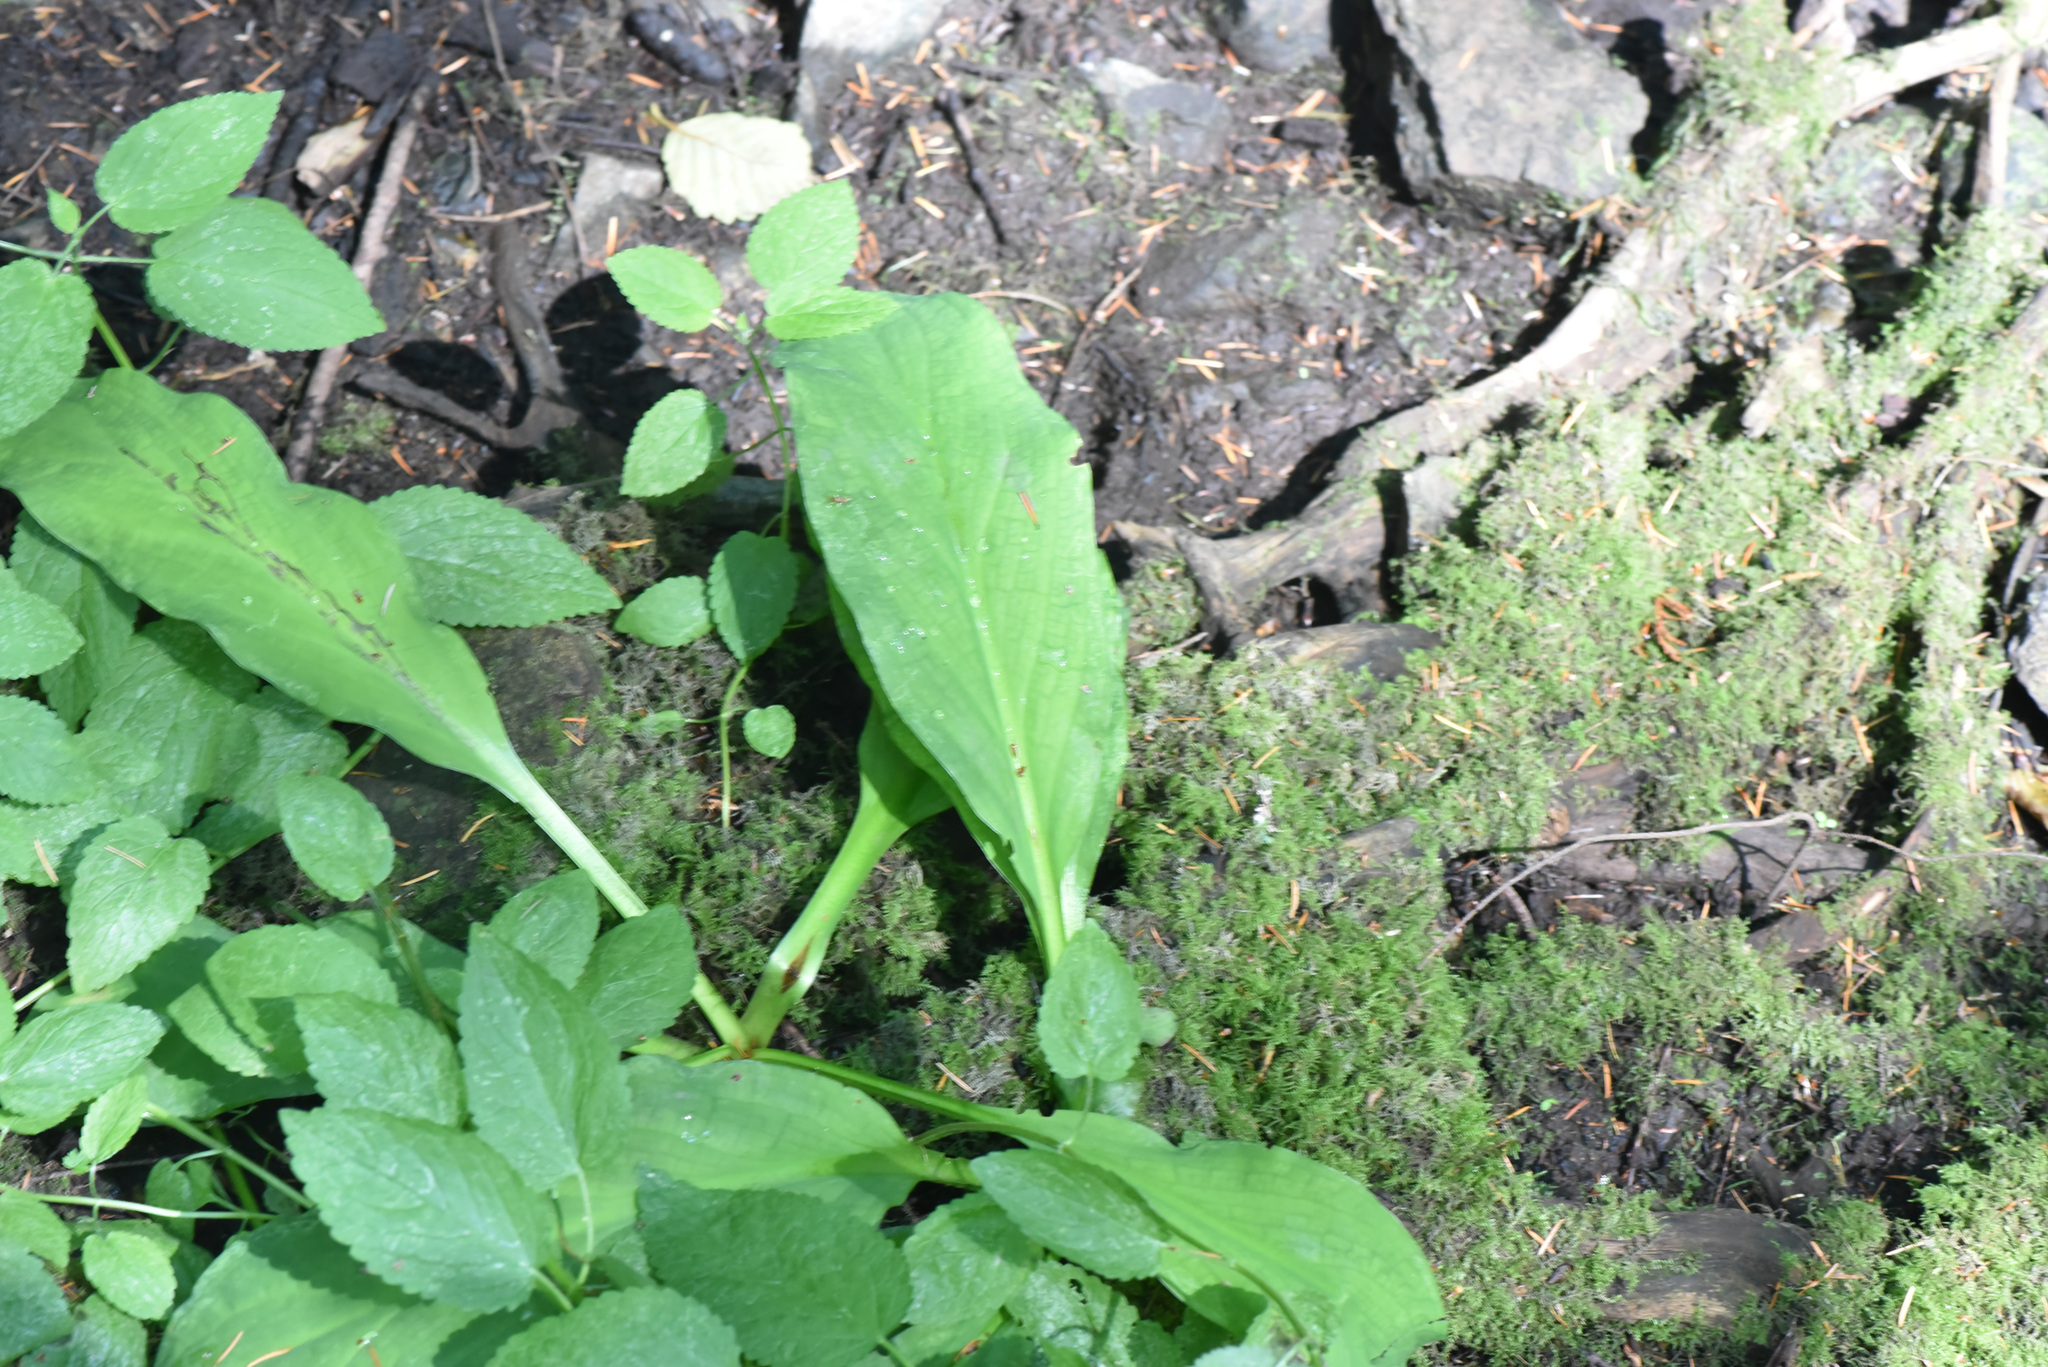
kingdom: Plantae
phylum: Tracheophyta
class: Liliopsida
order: Alismatales
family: Araceae
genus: Lysichiton
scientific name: Lysichiton americanus
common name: American skunk cabbage
